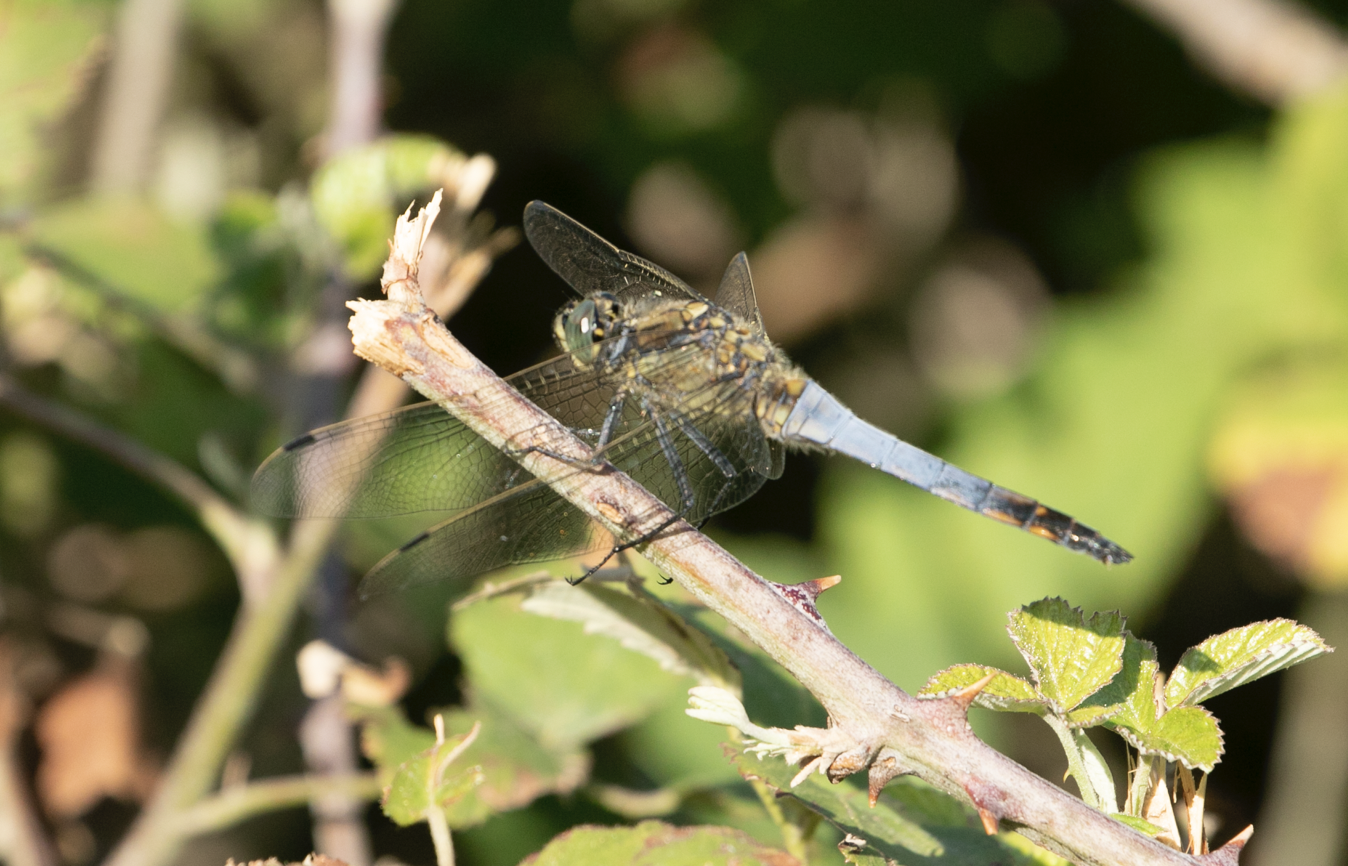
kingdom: Animalia
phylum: Arthropoda
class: Insecta
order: Odonata
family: Libellulidae
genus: Orthetrum
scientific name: Orthetrum cancellatum
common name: Black-tailed skimmer
